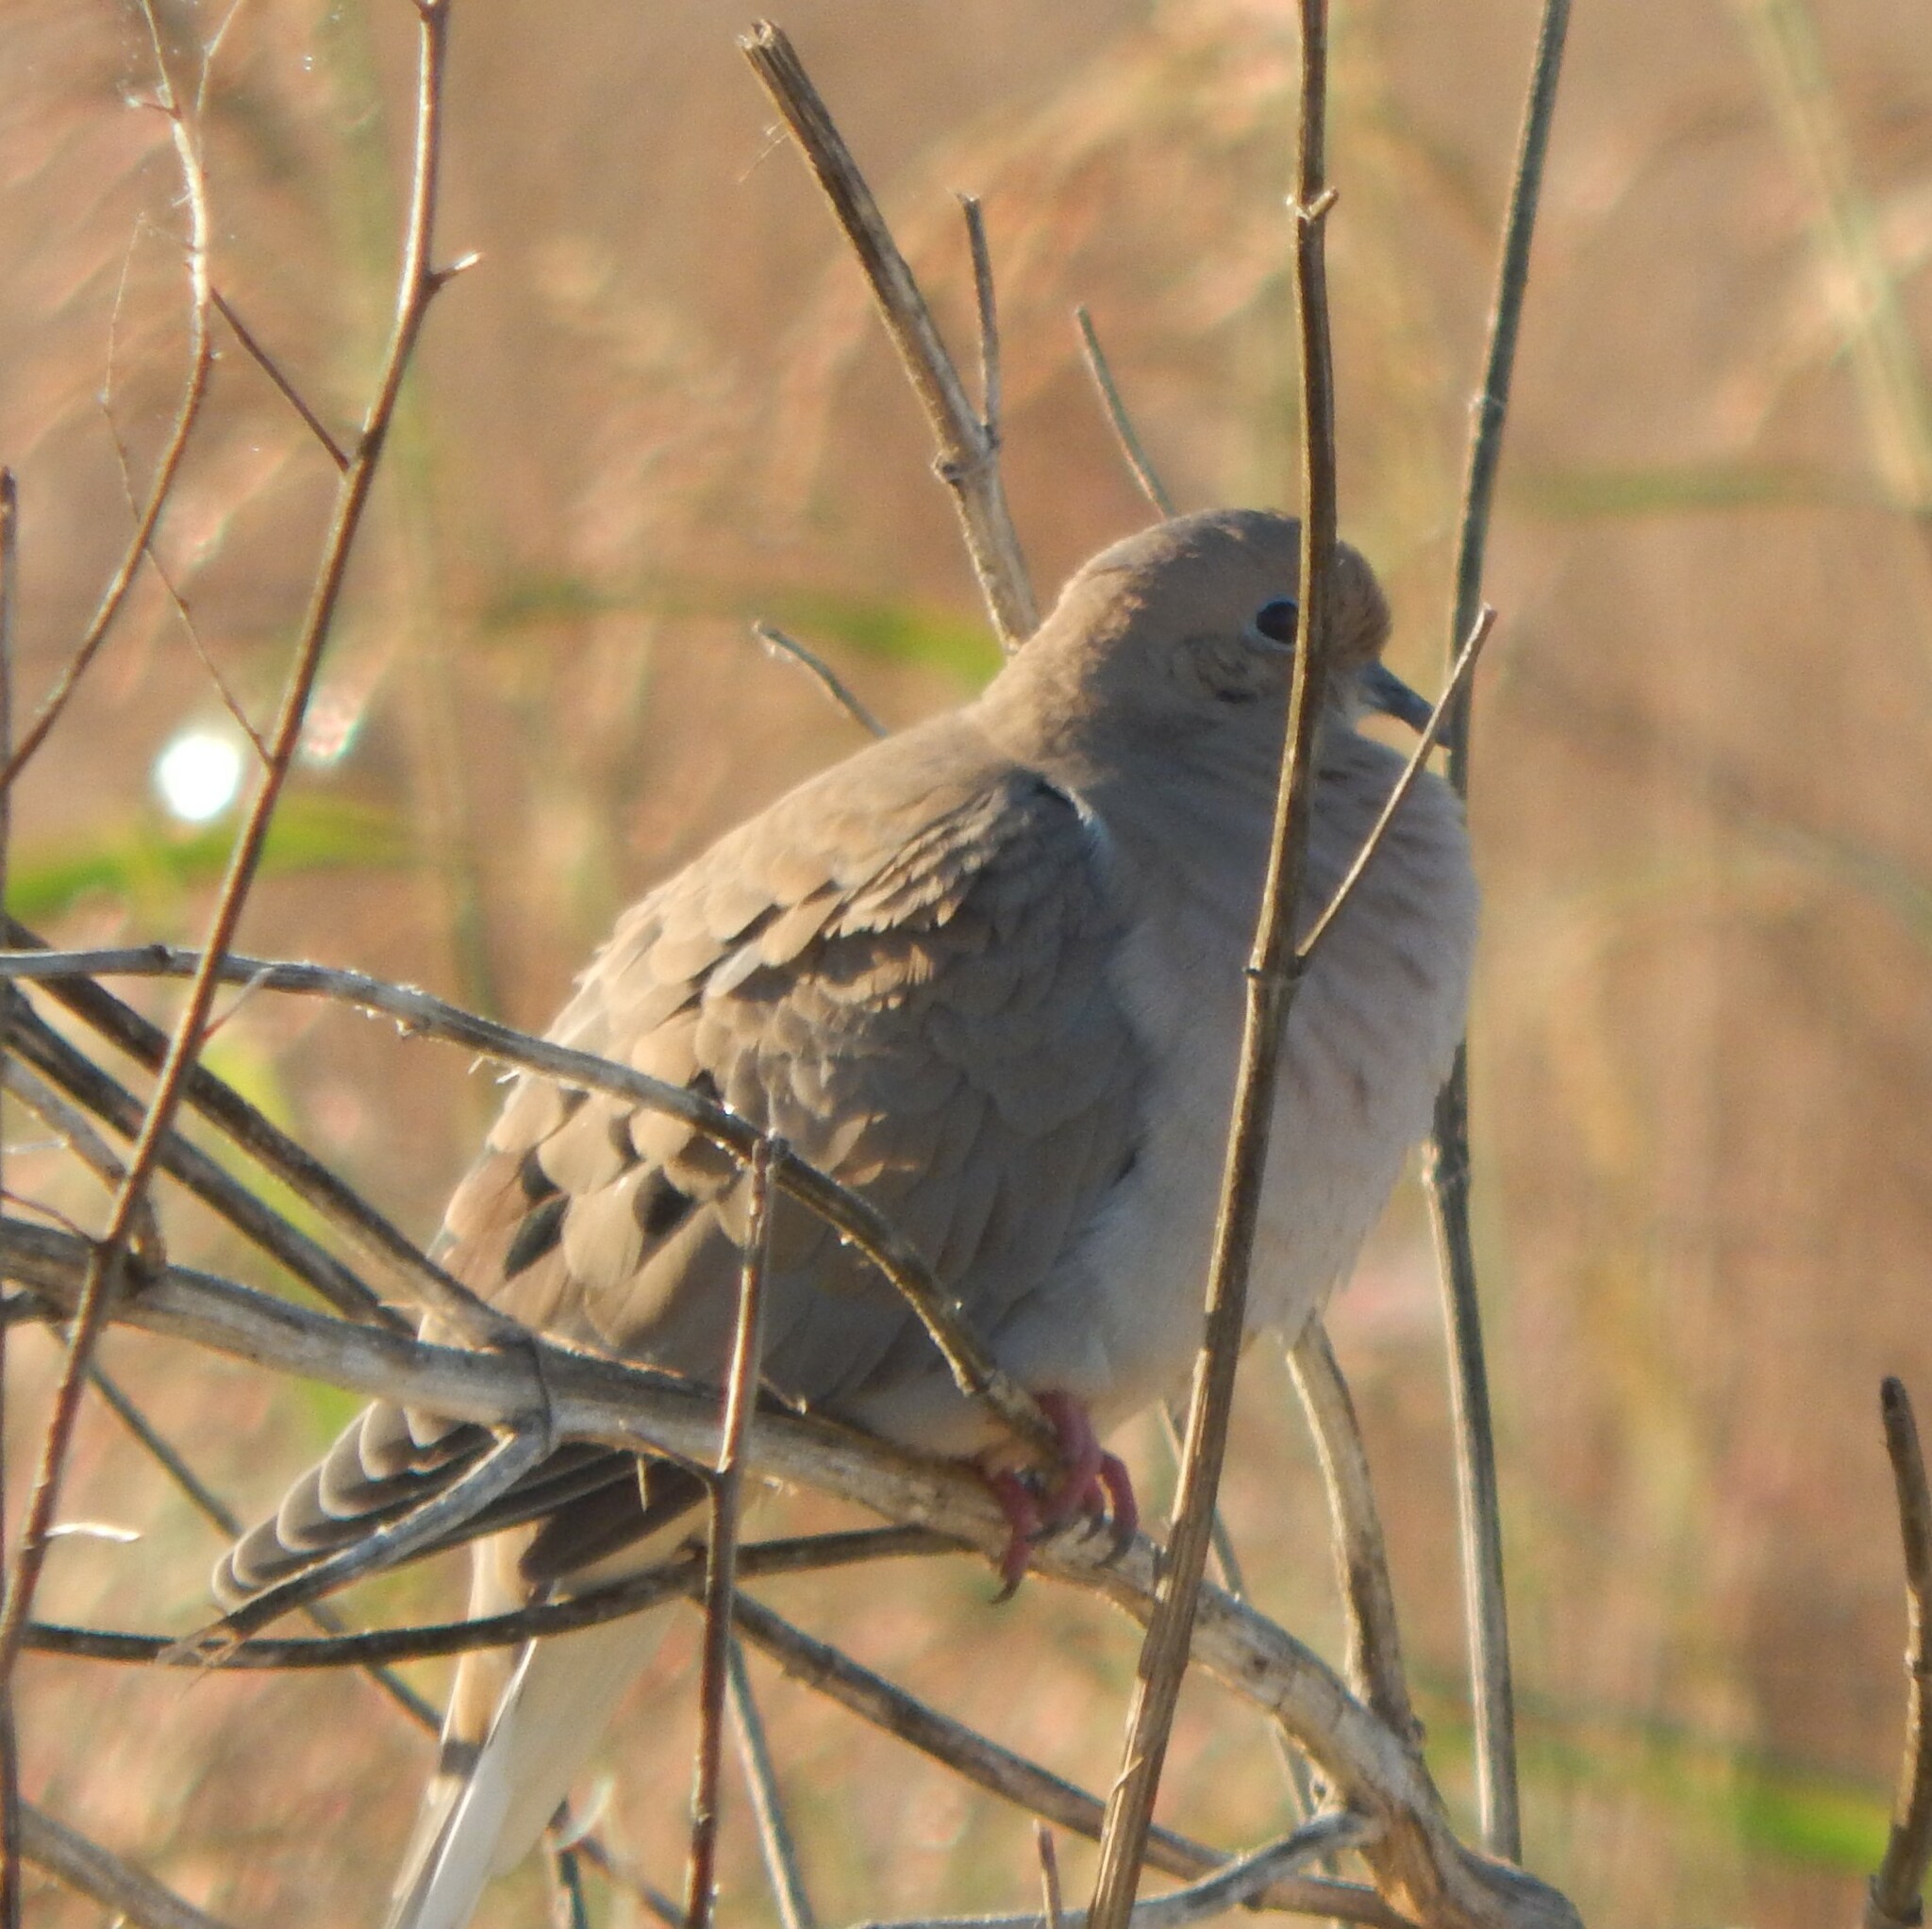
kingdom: Animalia
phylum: Chordata
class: Aves
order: Columbiformes
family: Columbidae
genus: Zenaida
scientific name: Zenaida macroura
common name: Mourning dove
